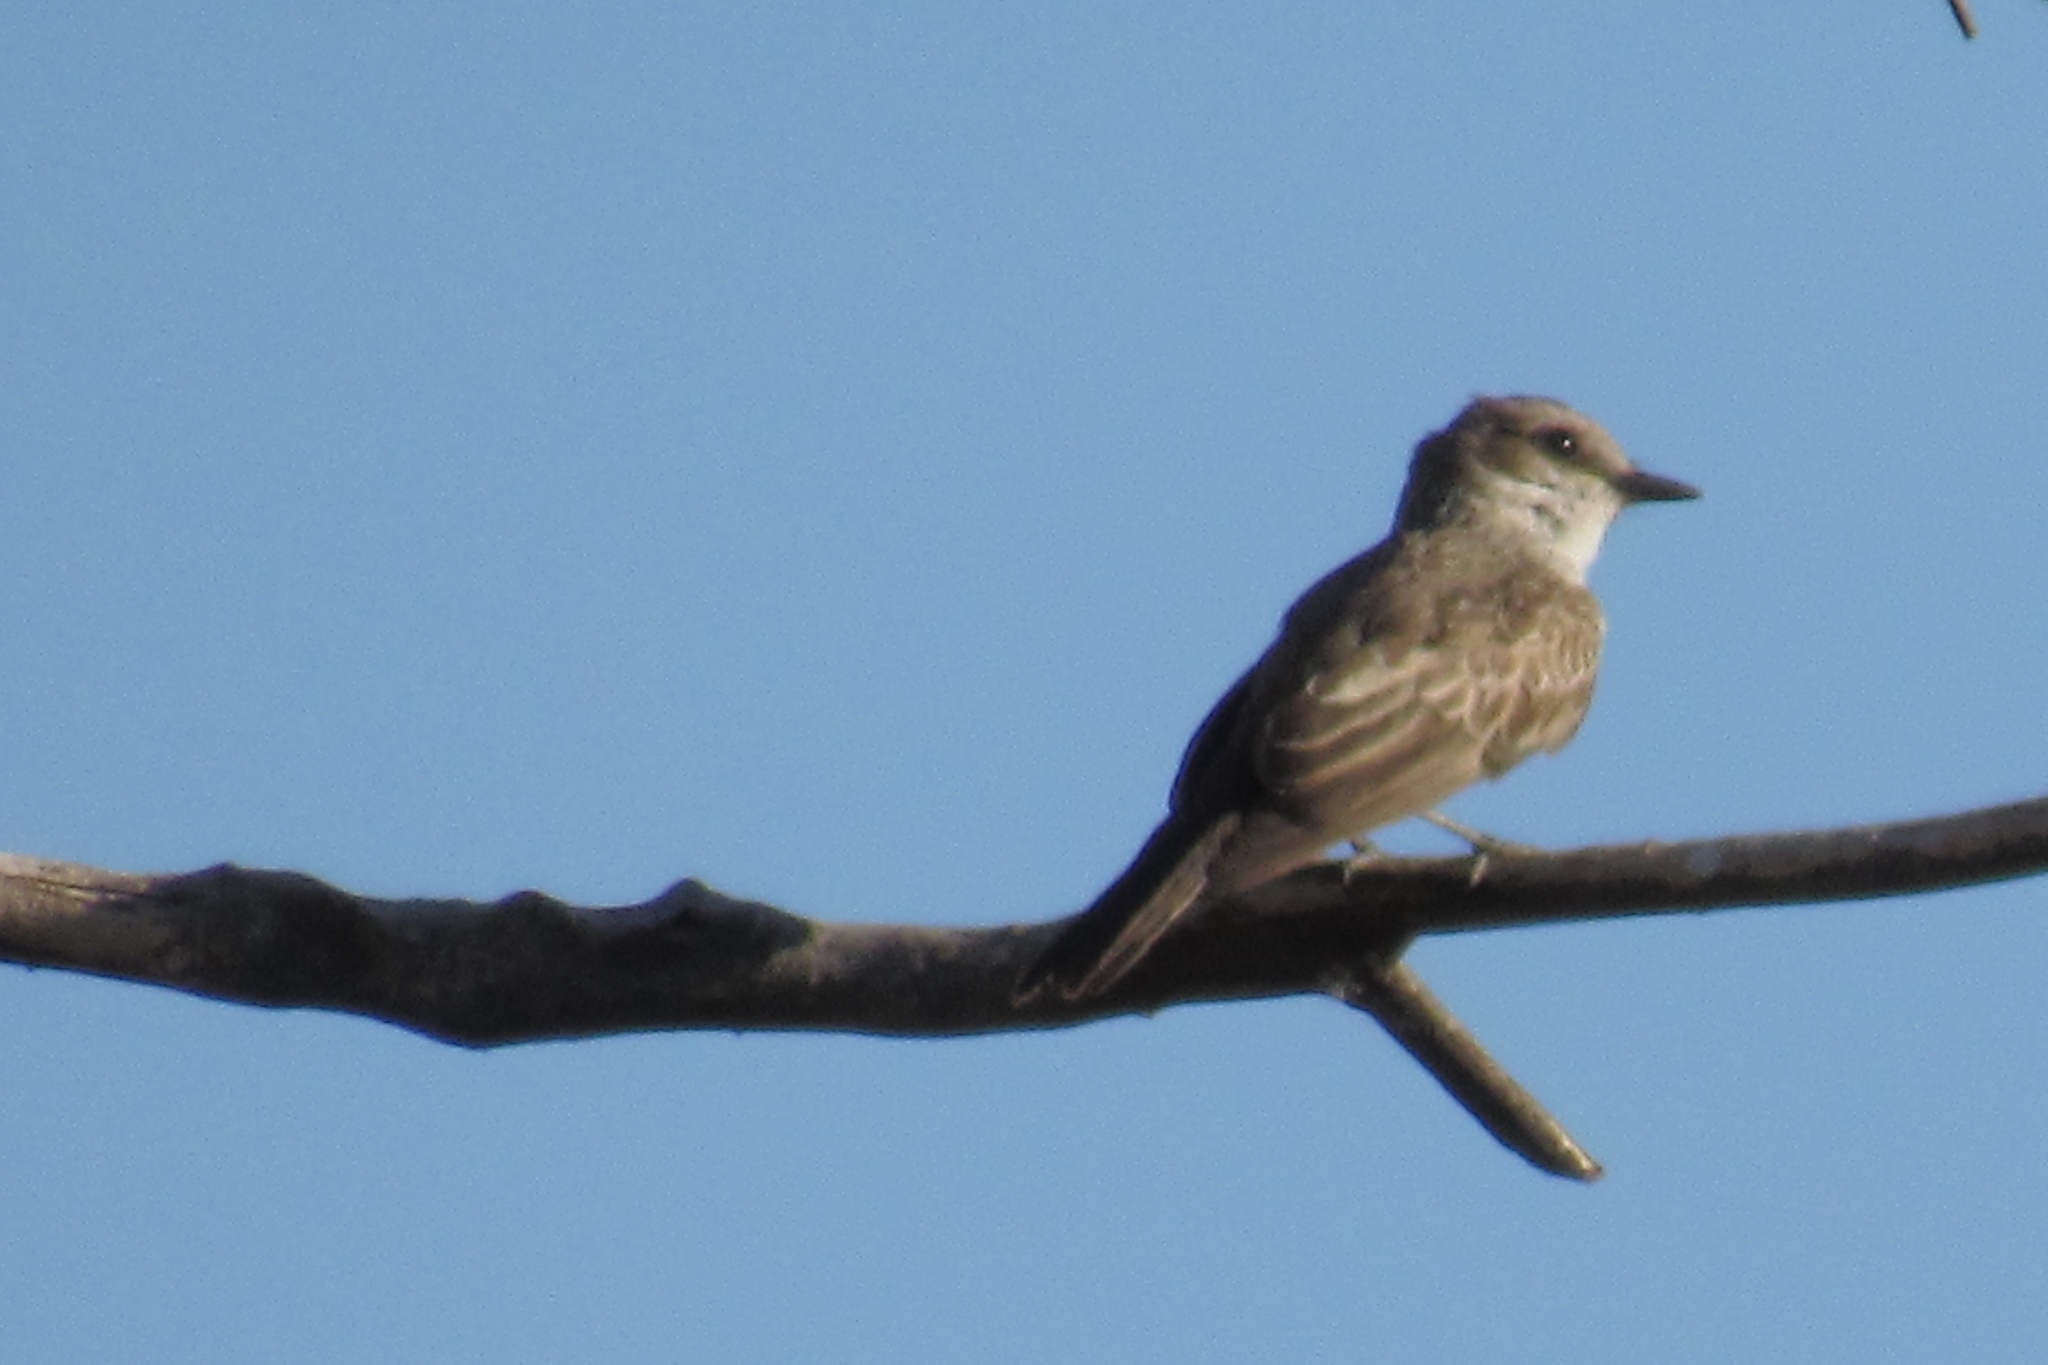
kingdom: Animalia
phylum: Chordata
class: Aves
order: Passeriformes
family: Tyrannidae
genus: Pyrocephalus
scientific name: Pyrocephalus rubinus
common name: Vermilion flycatcher
